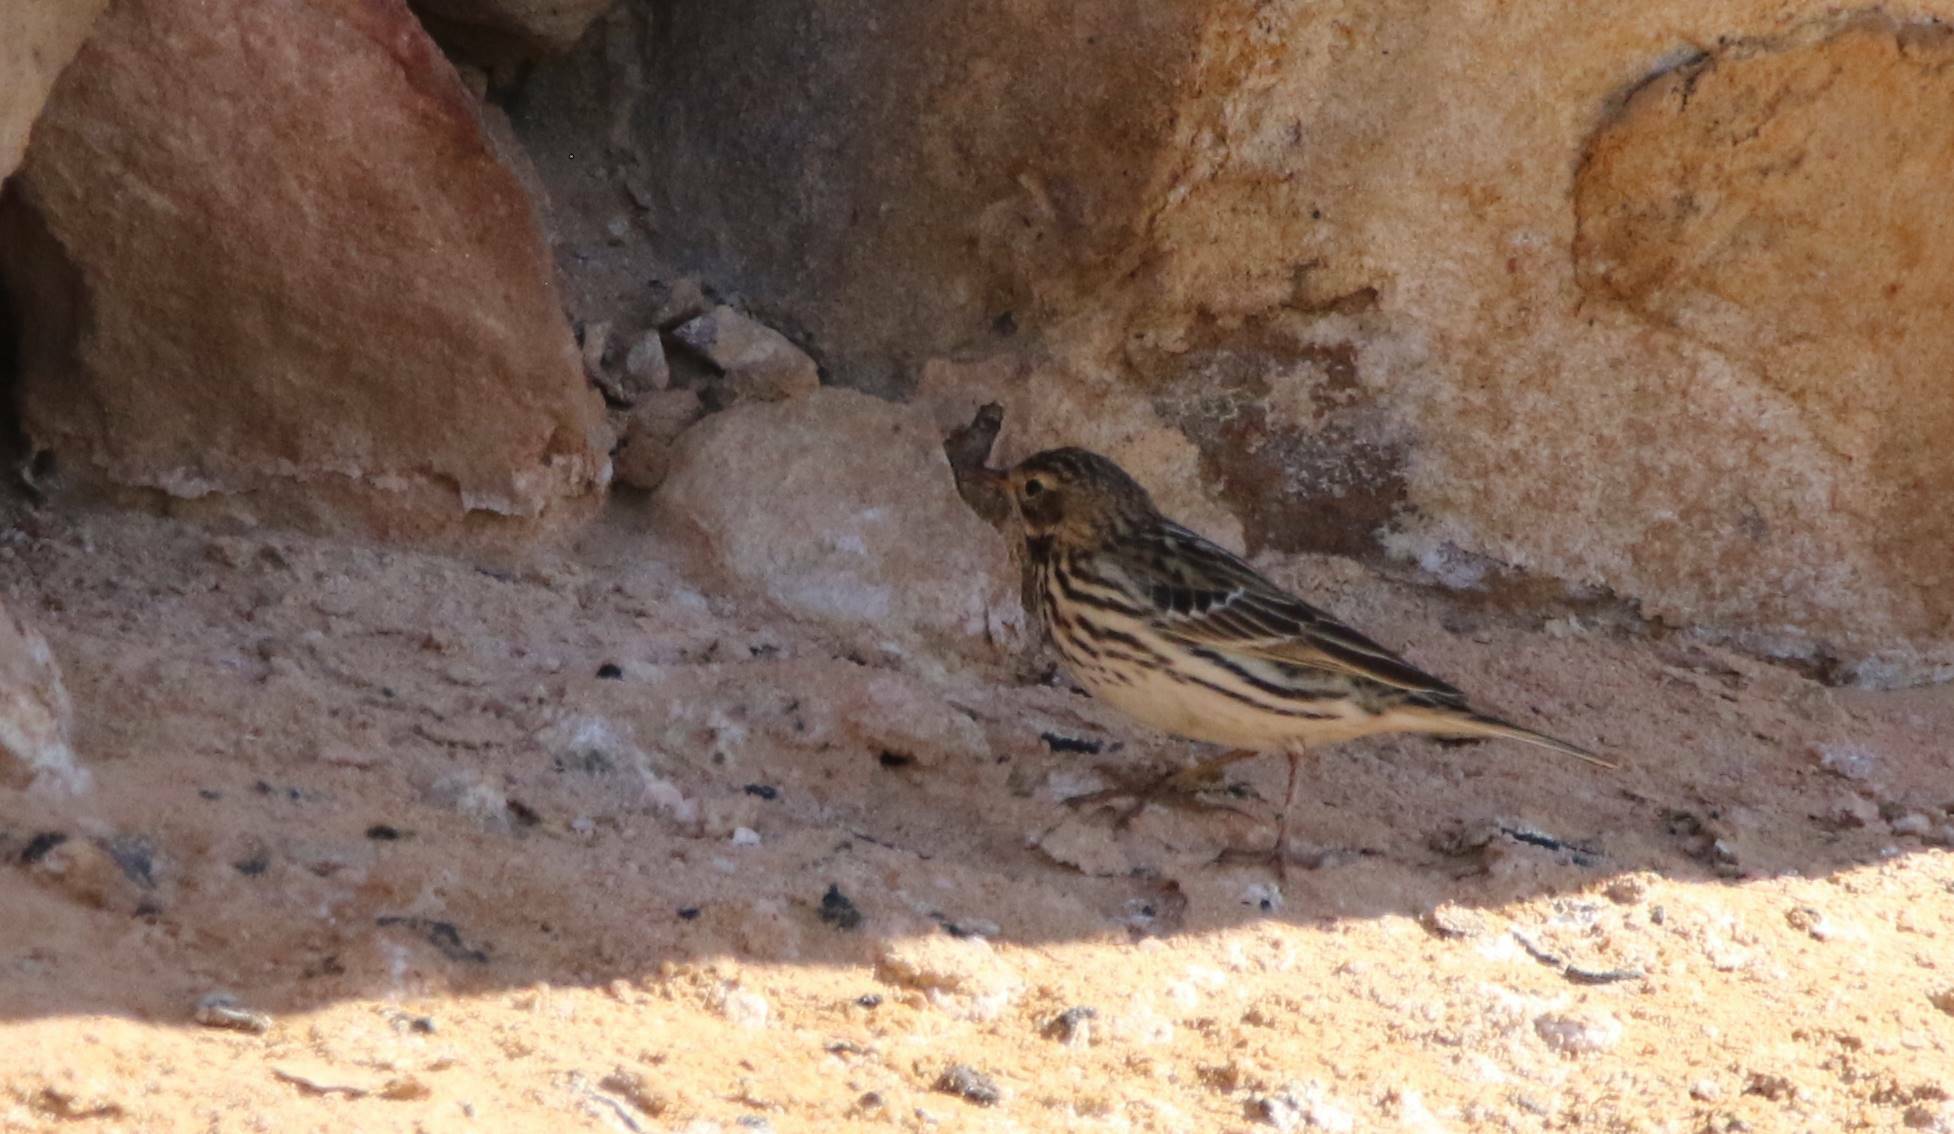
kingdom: Animalia
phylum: Chordata
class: Aves
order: Passeriformes
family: Motacillidae
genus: Anthus
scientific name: Anthus cervinus
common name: Red-throated pipit
